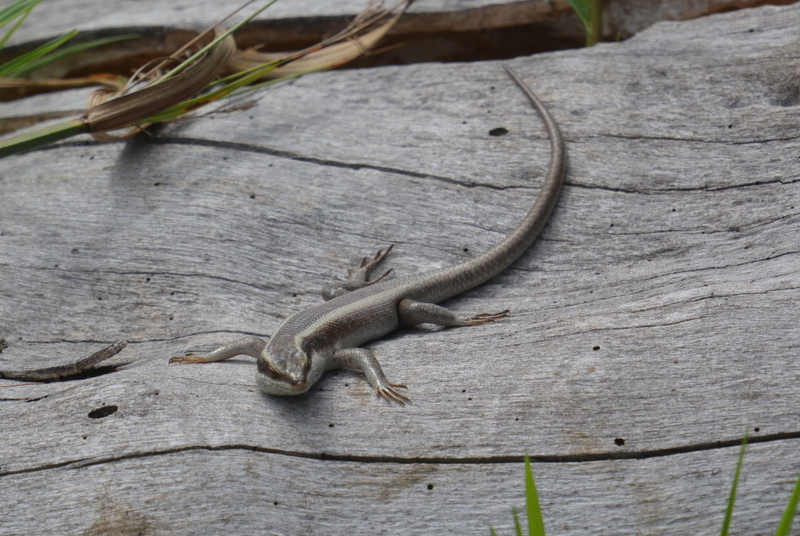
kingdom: Animalia
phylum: Chordata
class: Squamata
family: Scincidae
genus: Trachylepis
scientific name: Trachylepis striata
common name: African striped mabuya
